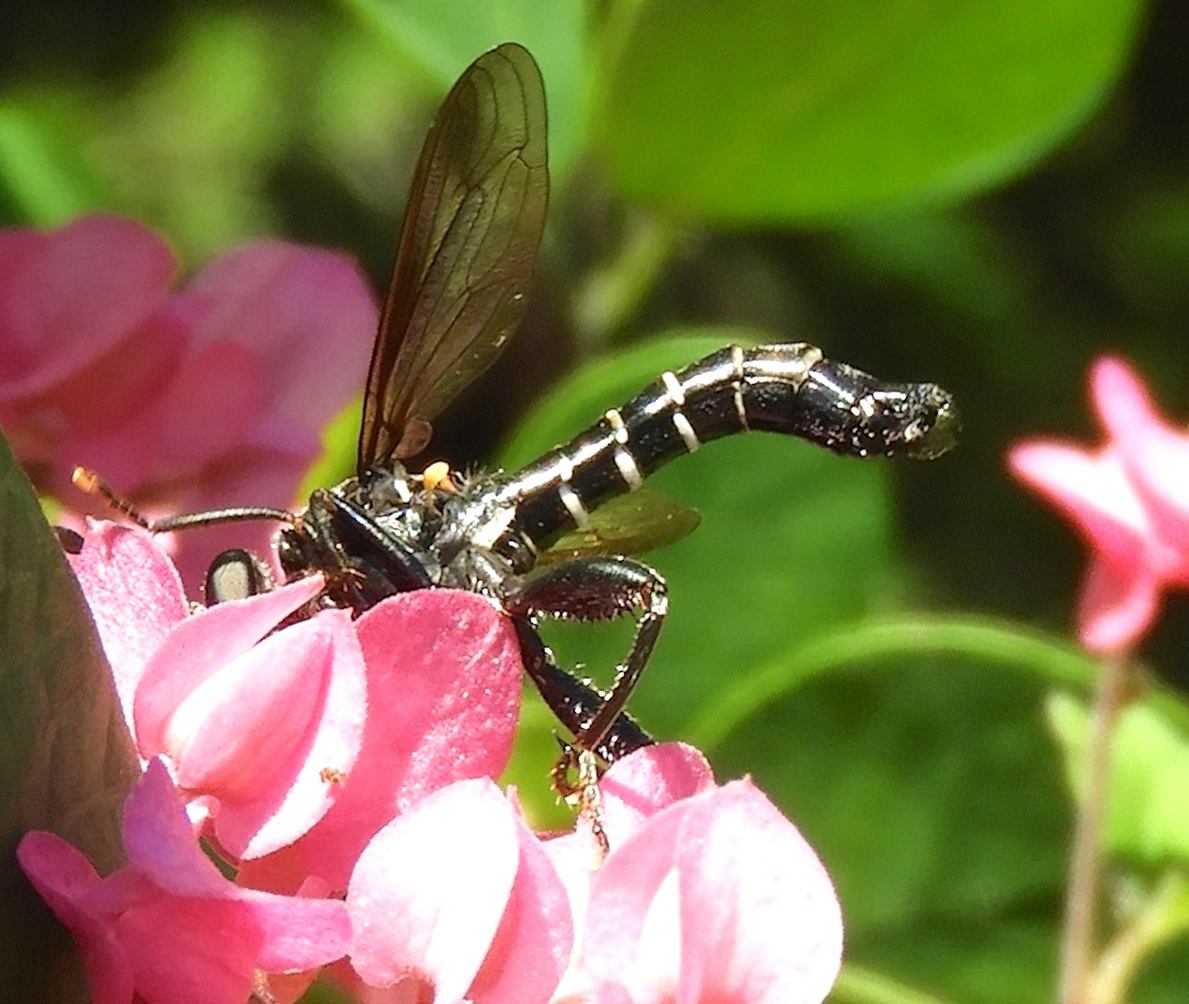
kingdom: Animalia
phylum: Arthropoda
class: Insecta
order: Diptera
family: Mydidae
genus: Mydas
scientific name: Mydas
